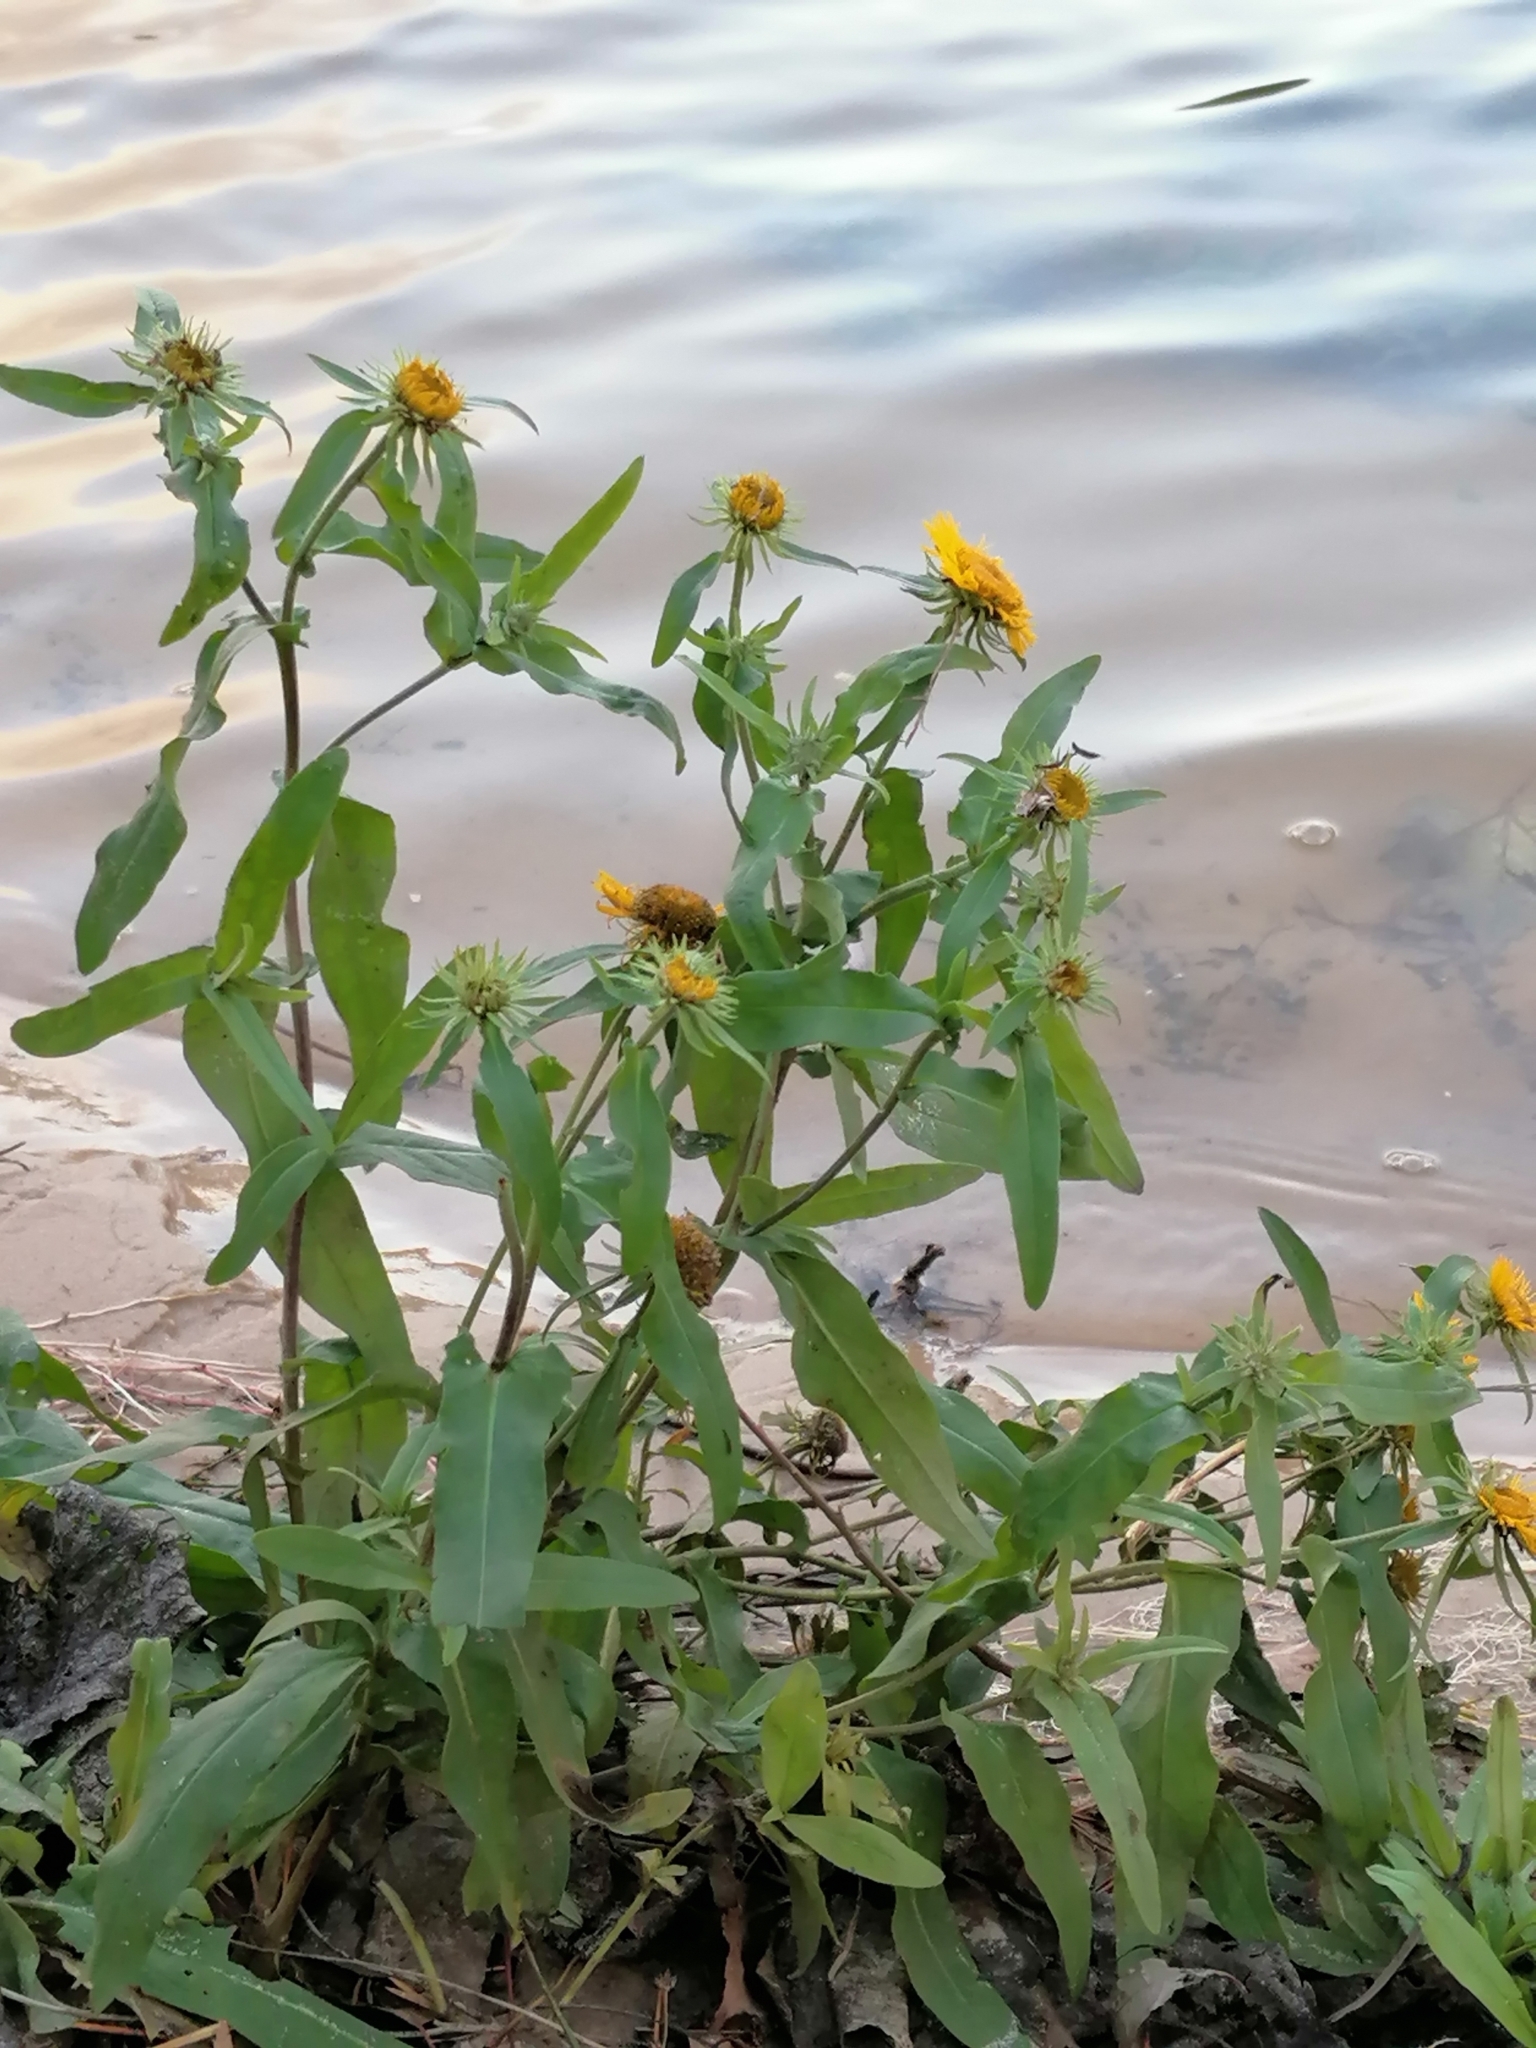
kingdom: Plantae
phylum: Tracheophyta
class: Magnoliopsida
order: Asterales
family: Asteraceae
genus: Pentanema
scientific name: Pentanema britannicum
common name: British elecampane
